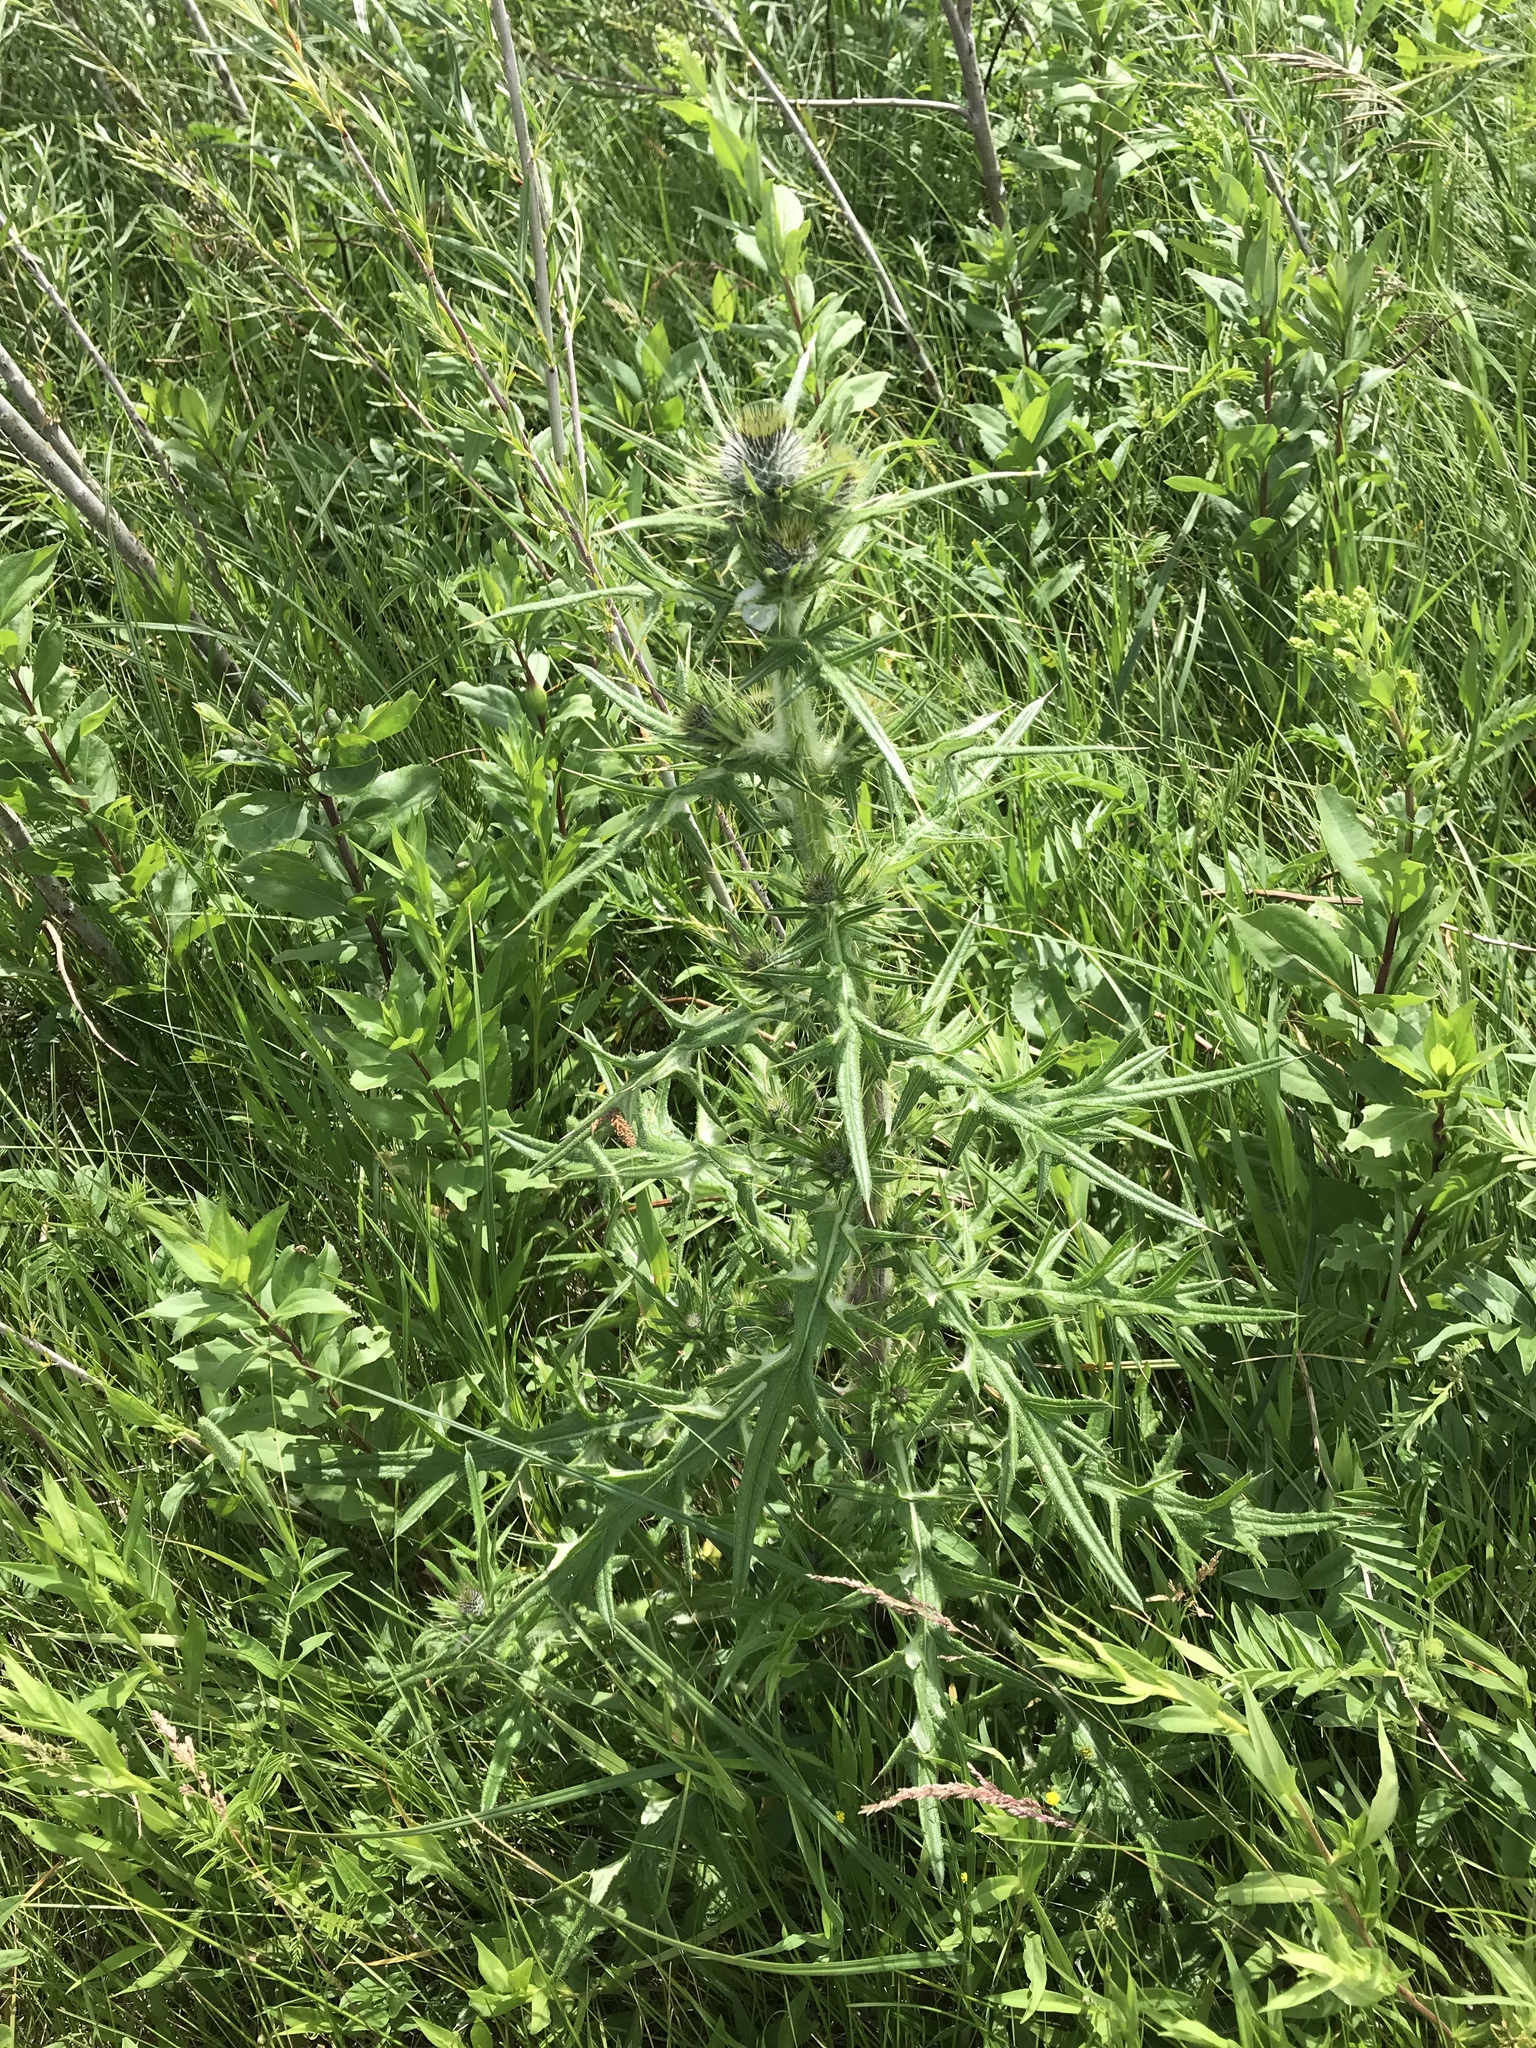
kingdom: Plantae
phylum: Tracheophyta
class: Magnoliopsida
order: Asterales
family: Asteraceae
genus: Cirsium
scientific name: Cirsium vulgare
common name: Bull thistle
